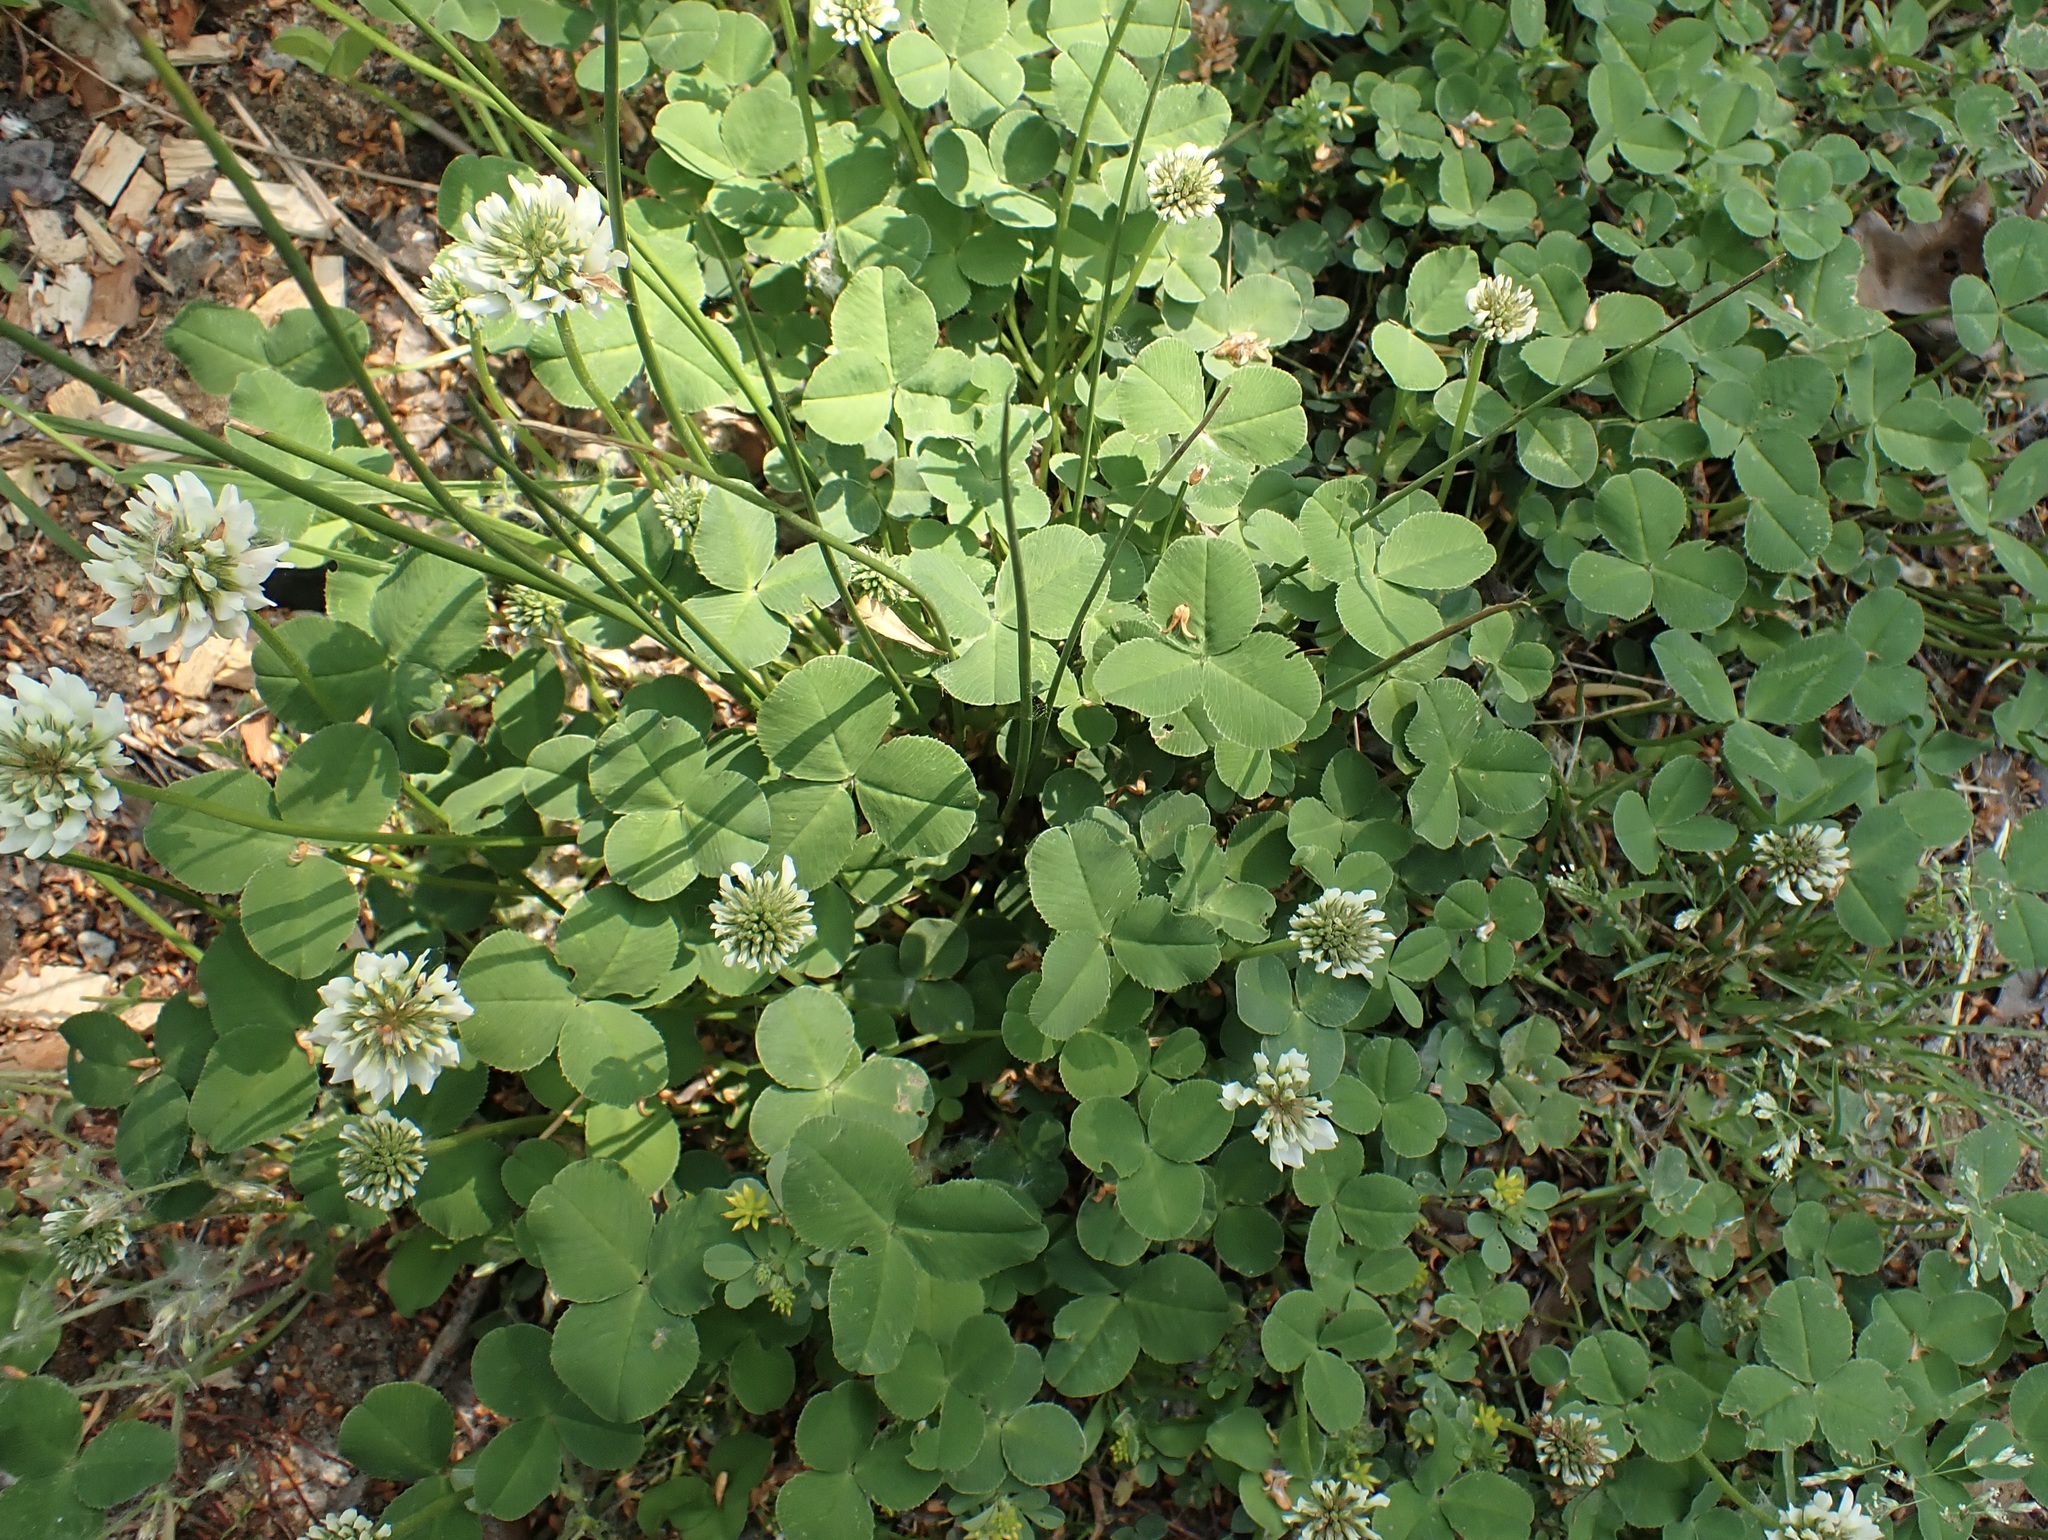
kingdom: Plantae
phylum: Tracheophyta
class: Magnoliopsida
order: Fabales
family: Fabaceae
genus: Trifolium
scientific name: Trifolium repens
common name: White clover
